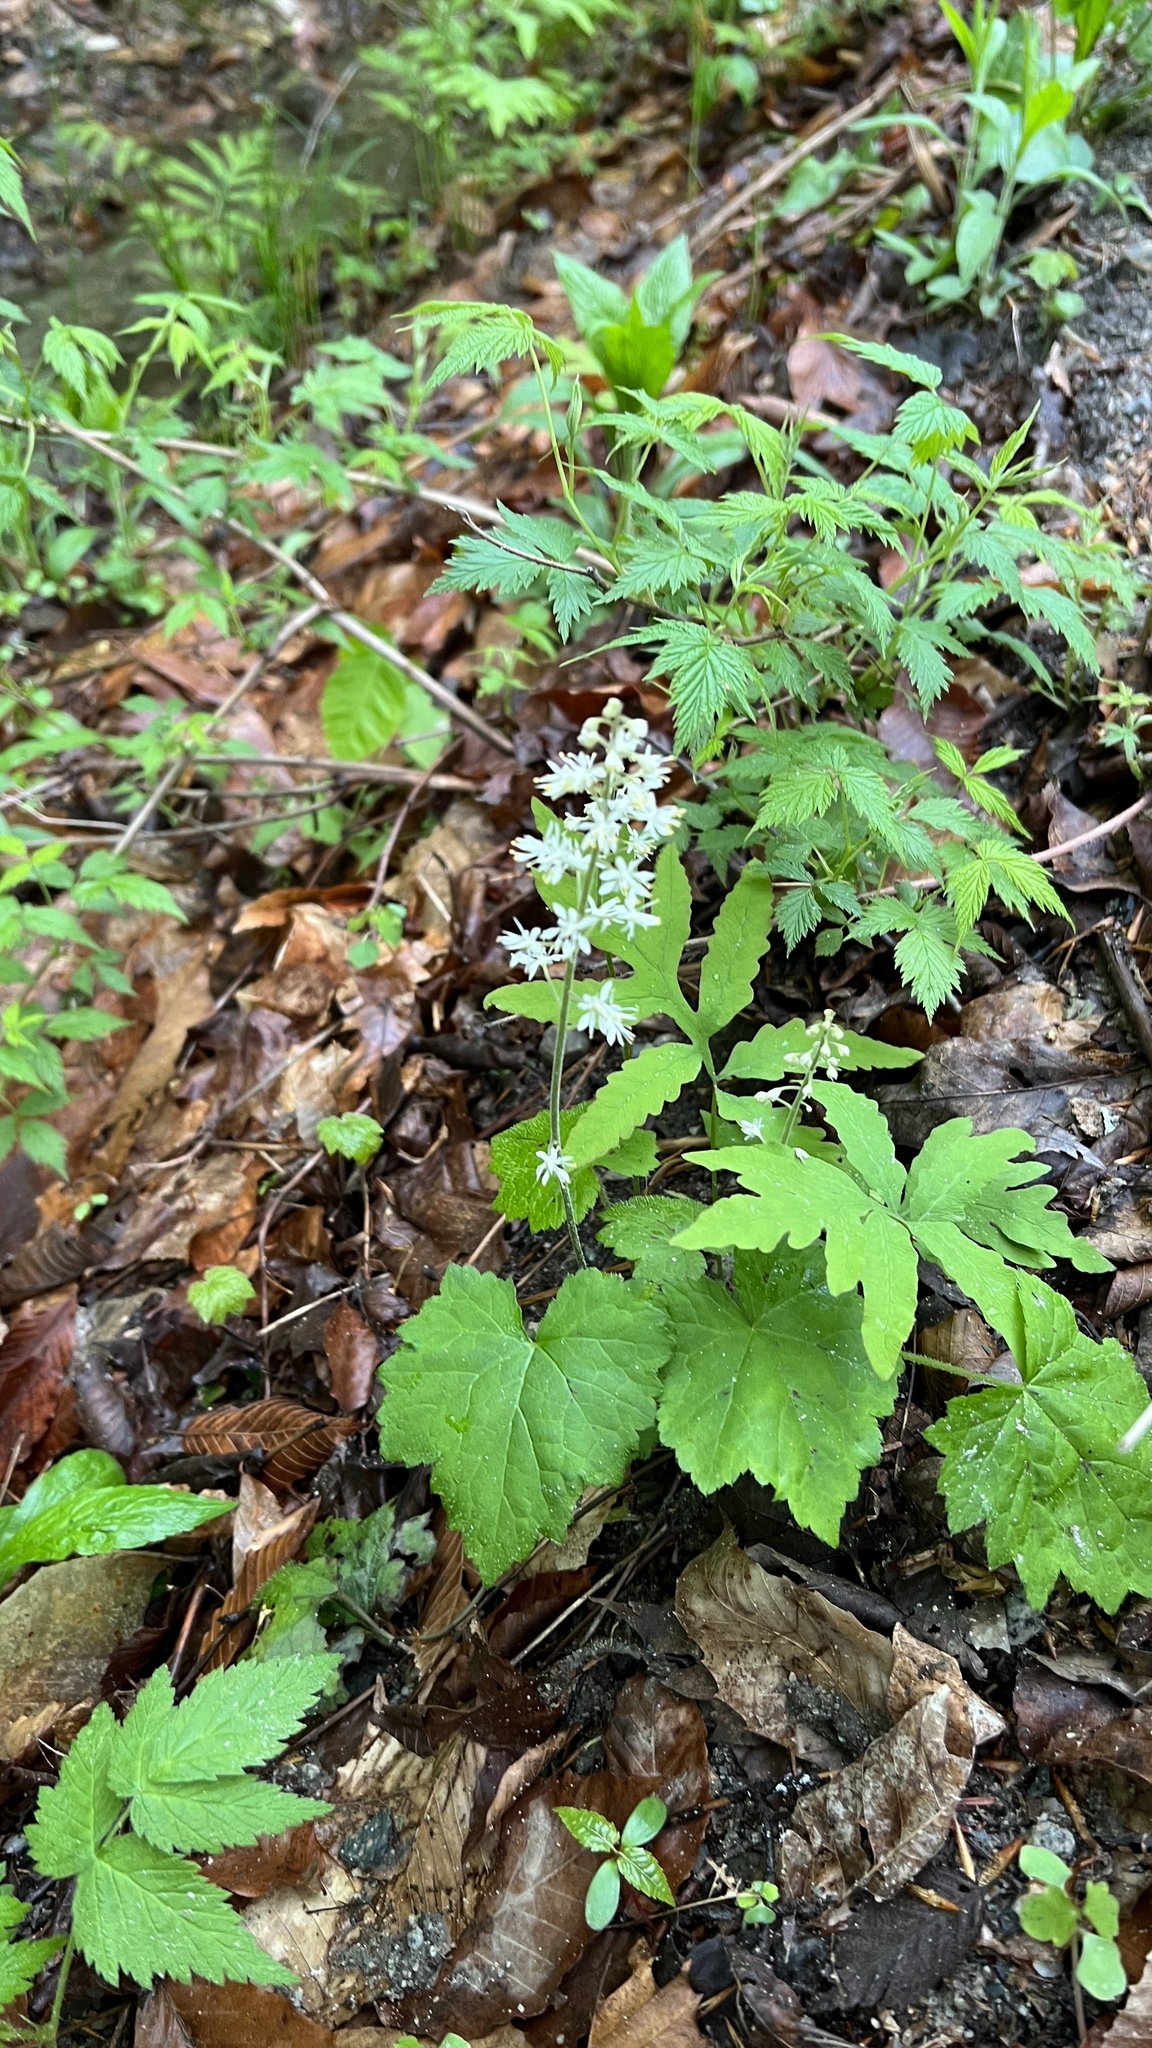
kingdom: Plantae
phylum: Tracheophyta
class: Magnoliopsida
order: Saxifragales
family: Saxifragaceae
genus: Tiarella
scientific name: Tiarella stolonifera
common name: Stoloniferous foamflower
